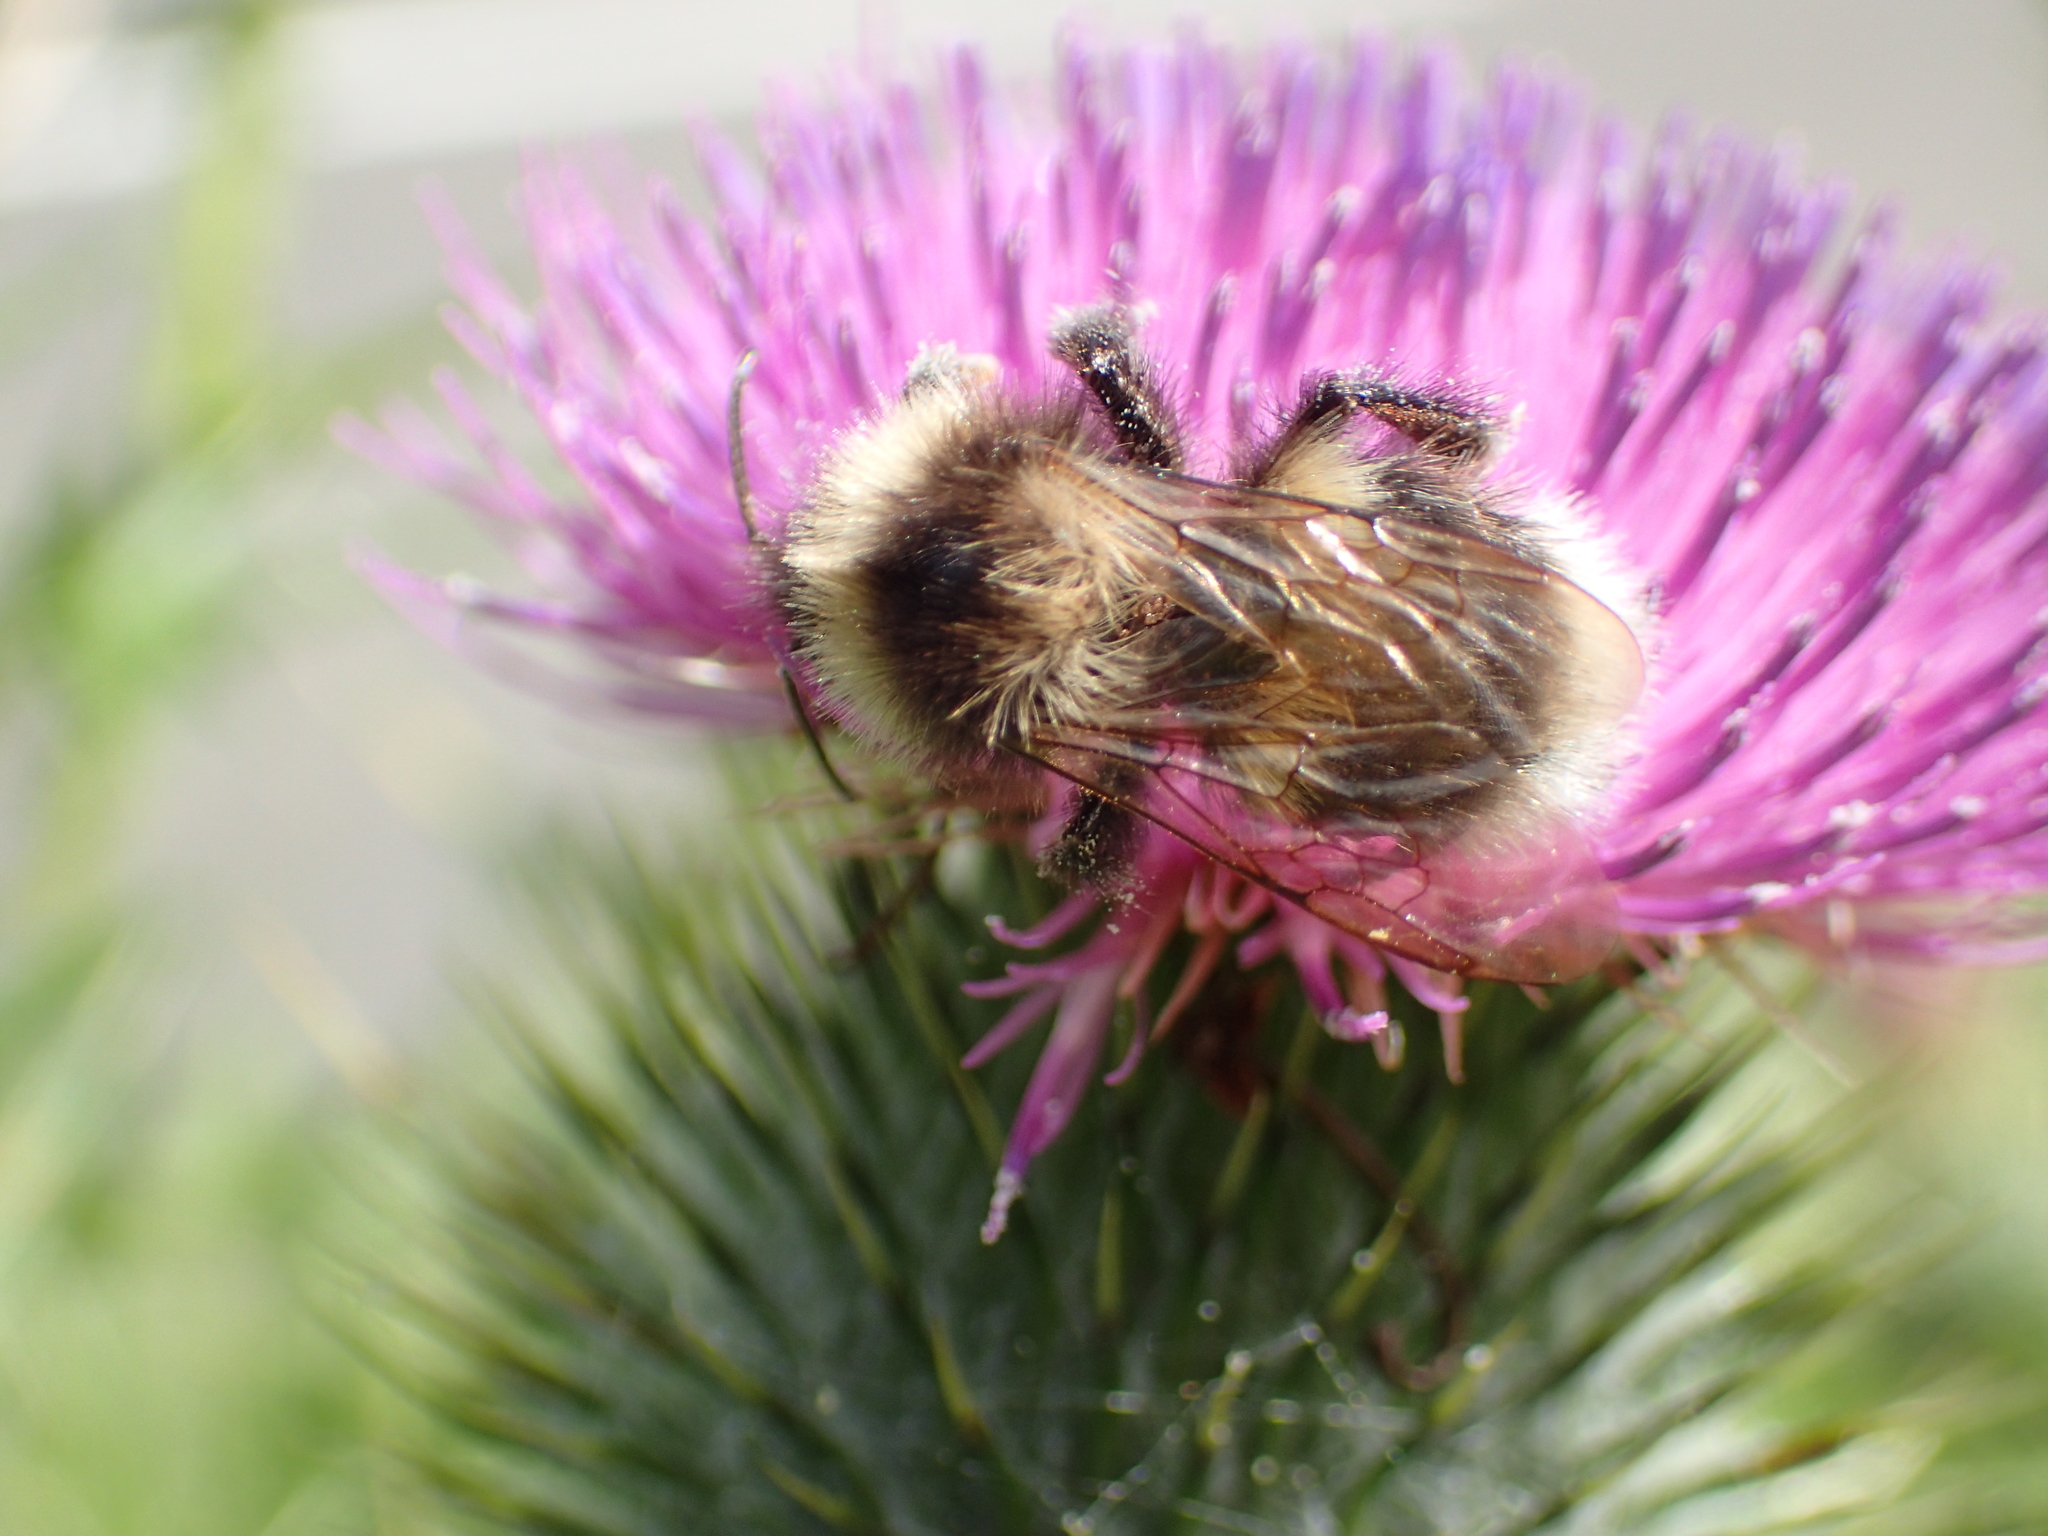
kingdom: Animalia
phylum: Arthropoda
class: Insecta
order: Hymenoptera
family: Apidae
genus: Megabombus
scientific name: Megabombus
